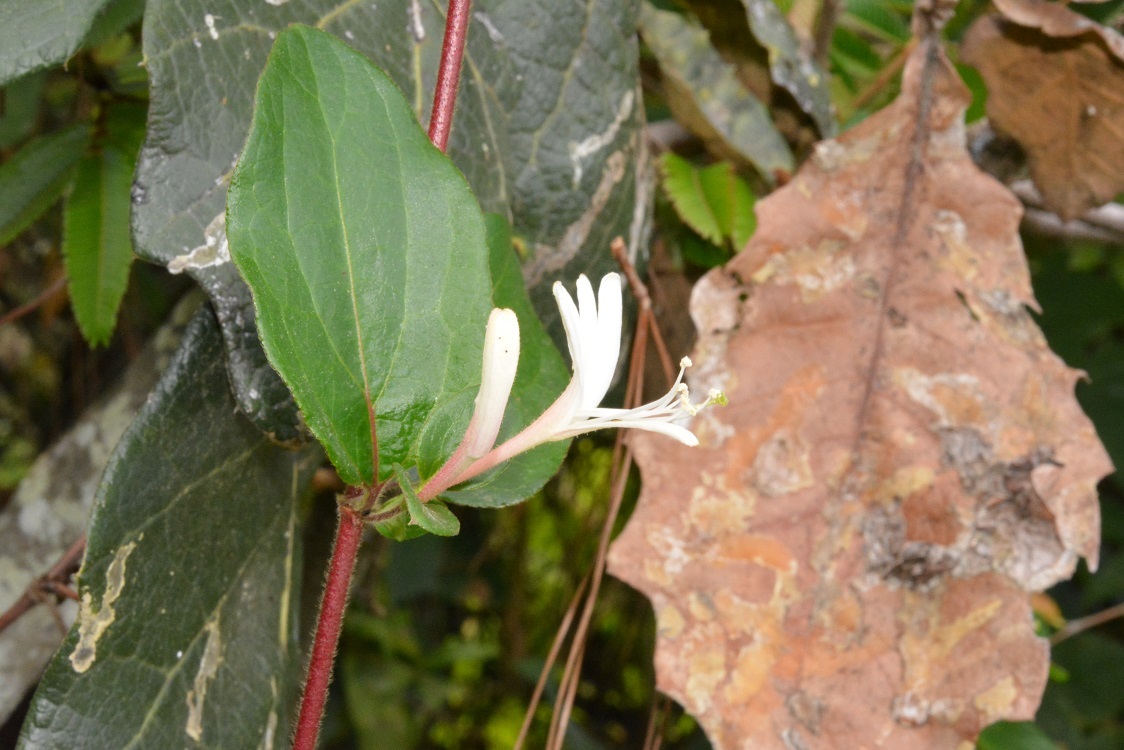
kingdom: Plantae
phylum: Tracheophyta
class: Magnoliopsida
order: Dipsacales
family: Caprifoliaceae
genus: Lonicera
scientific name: Lonicera japonica
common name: Japanese honeysuckle
